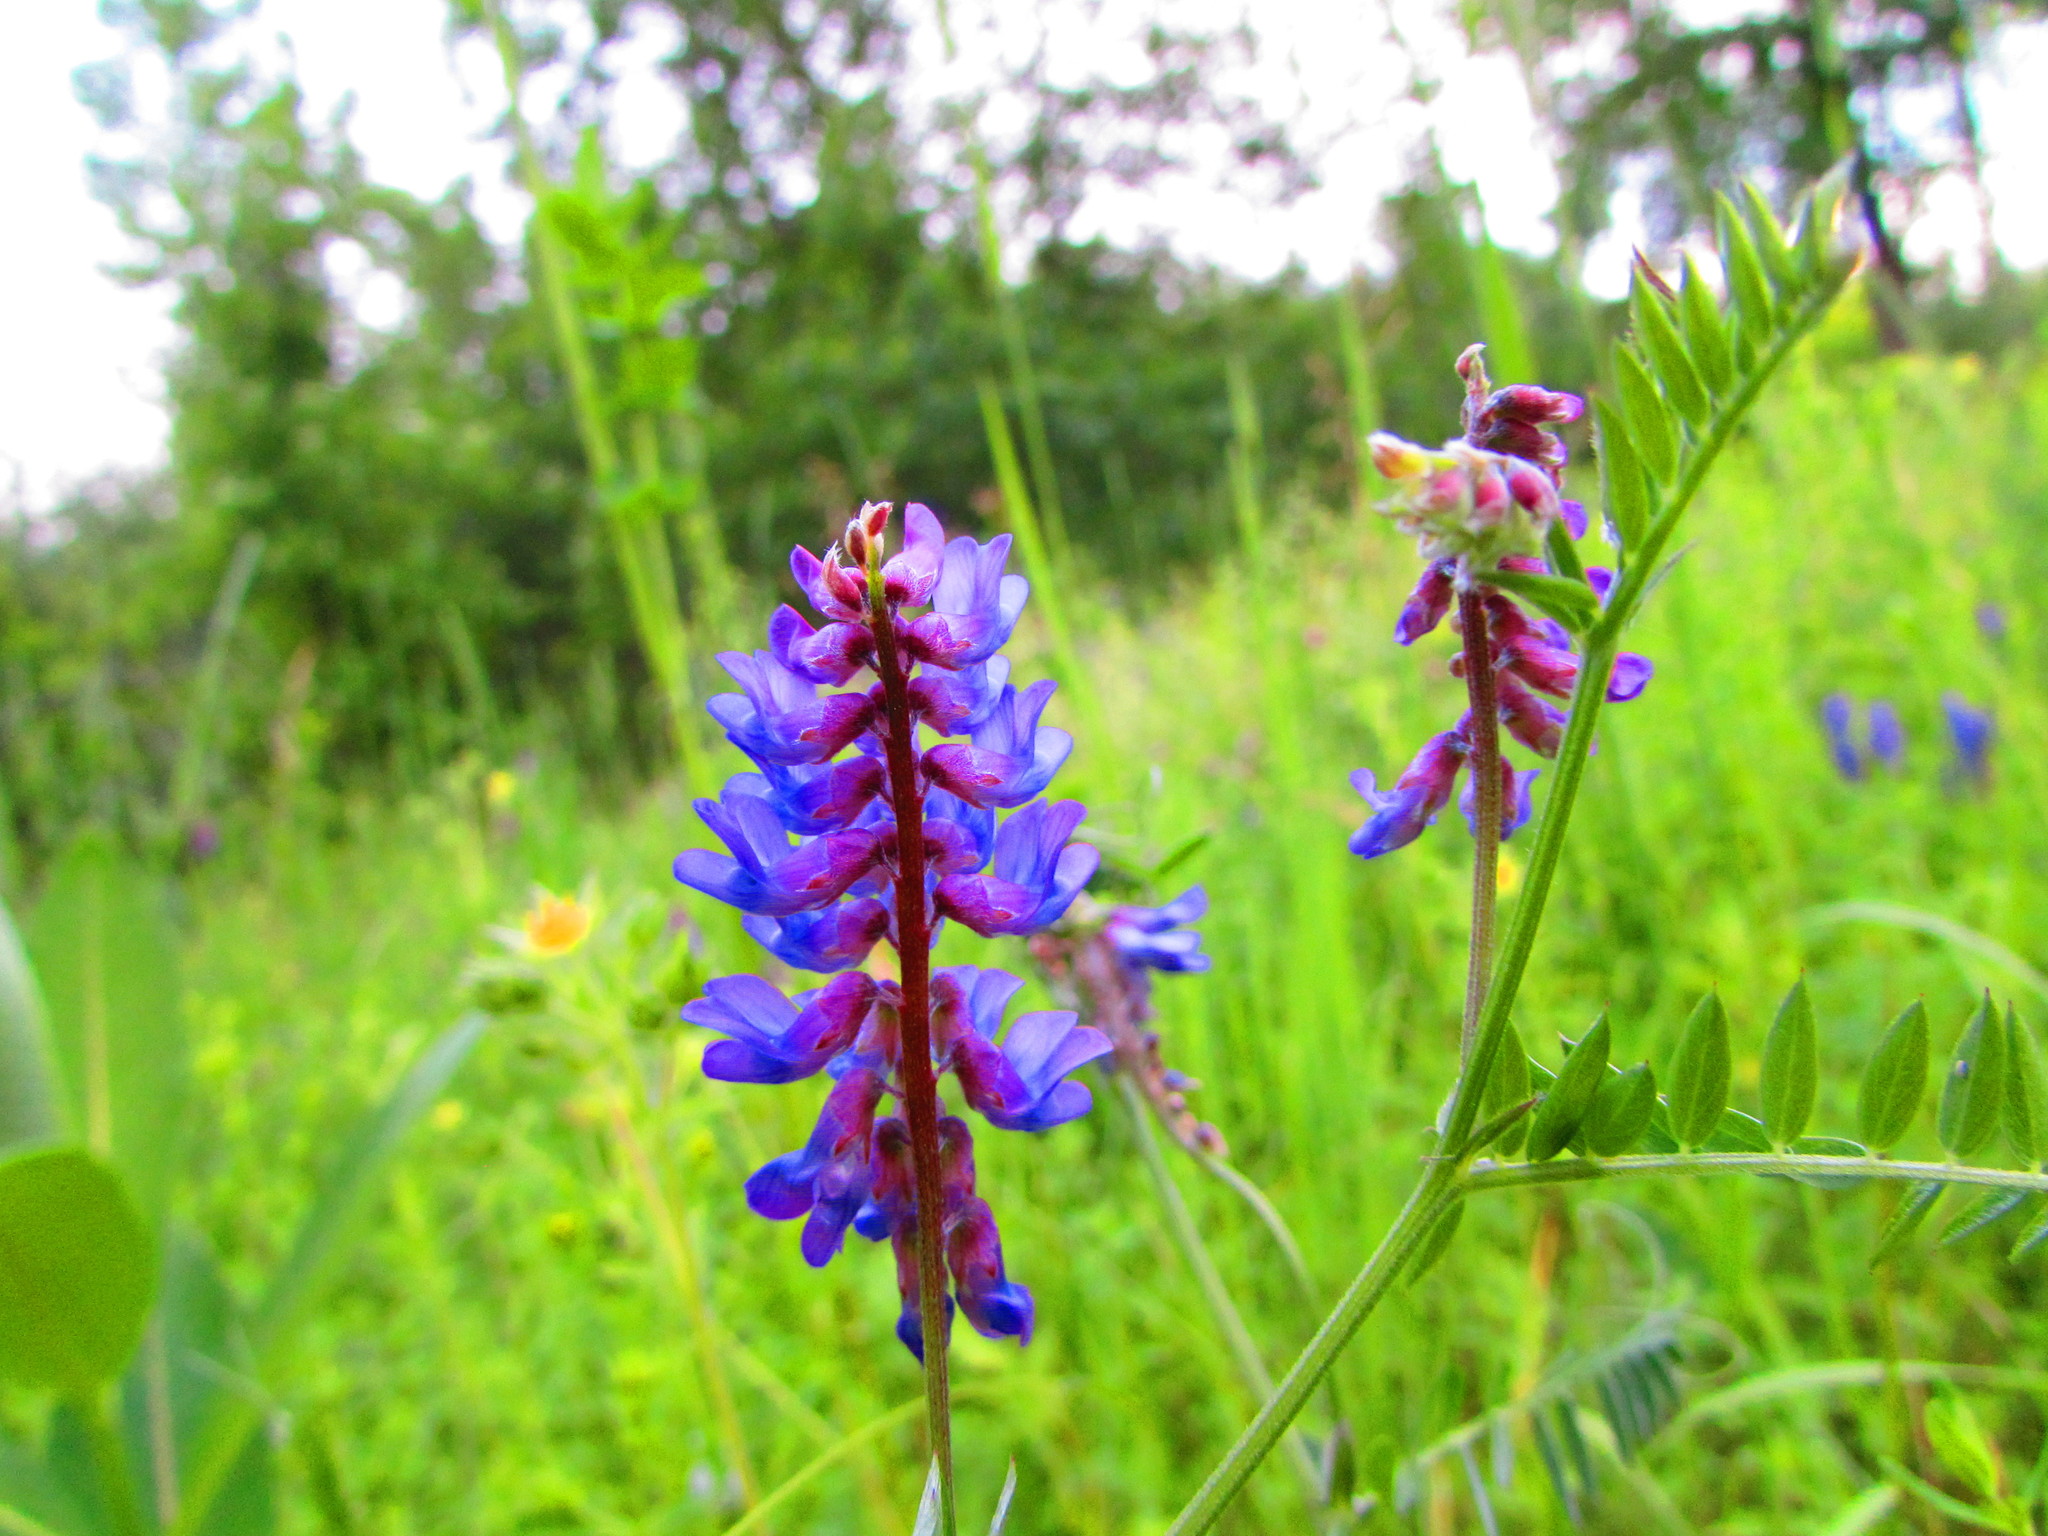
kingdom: Plantae
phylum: Tracheophyta
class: Magnoliopsida
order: Fabales
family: Fabaceae
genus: Vicia
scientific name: Vicia cracca
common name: Bird vetch
